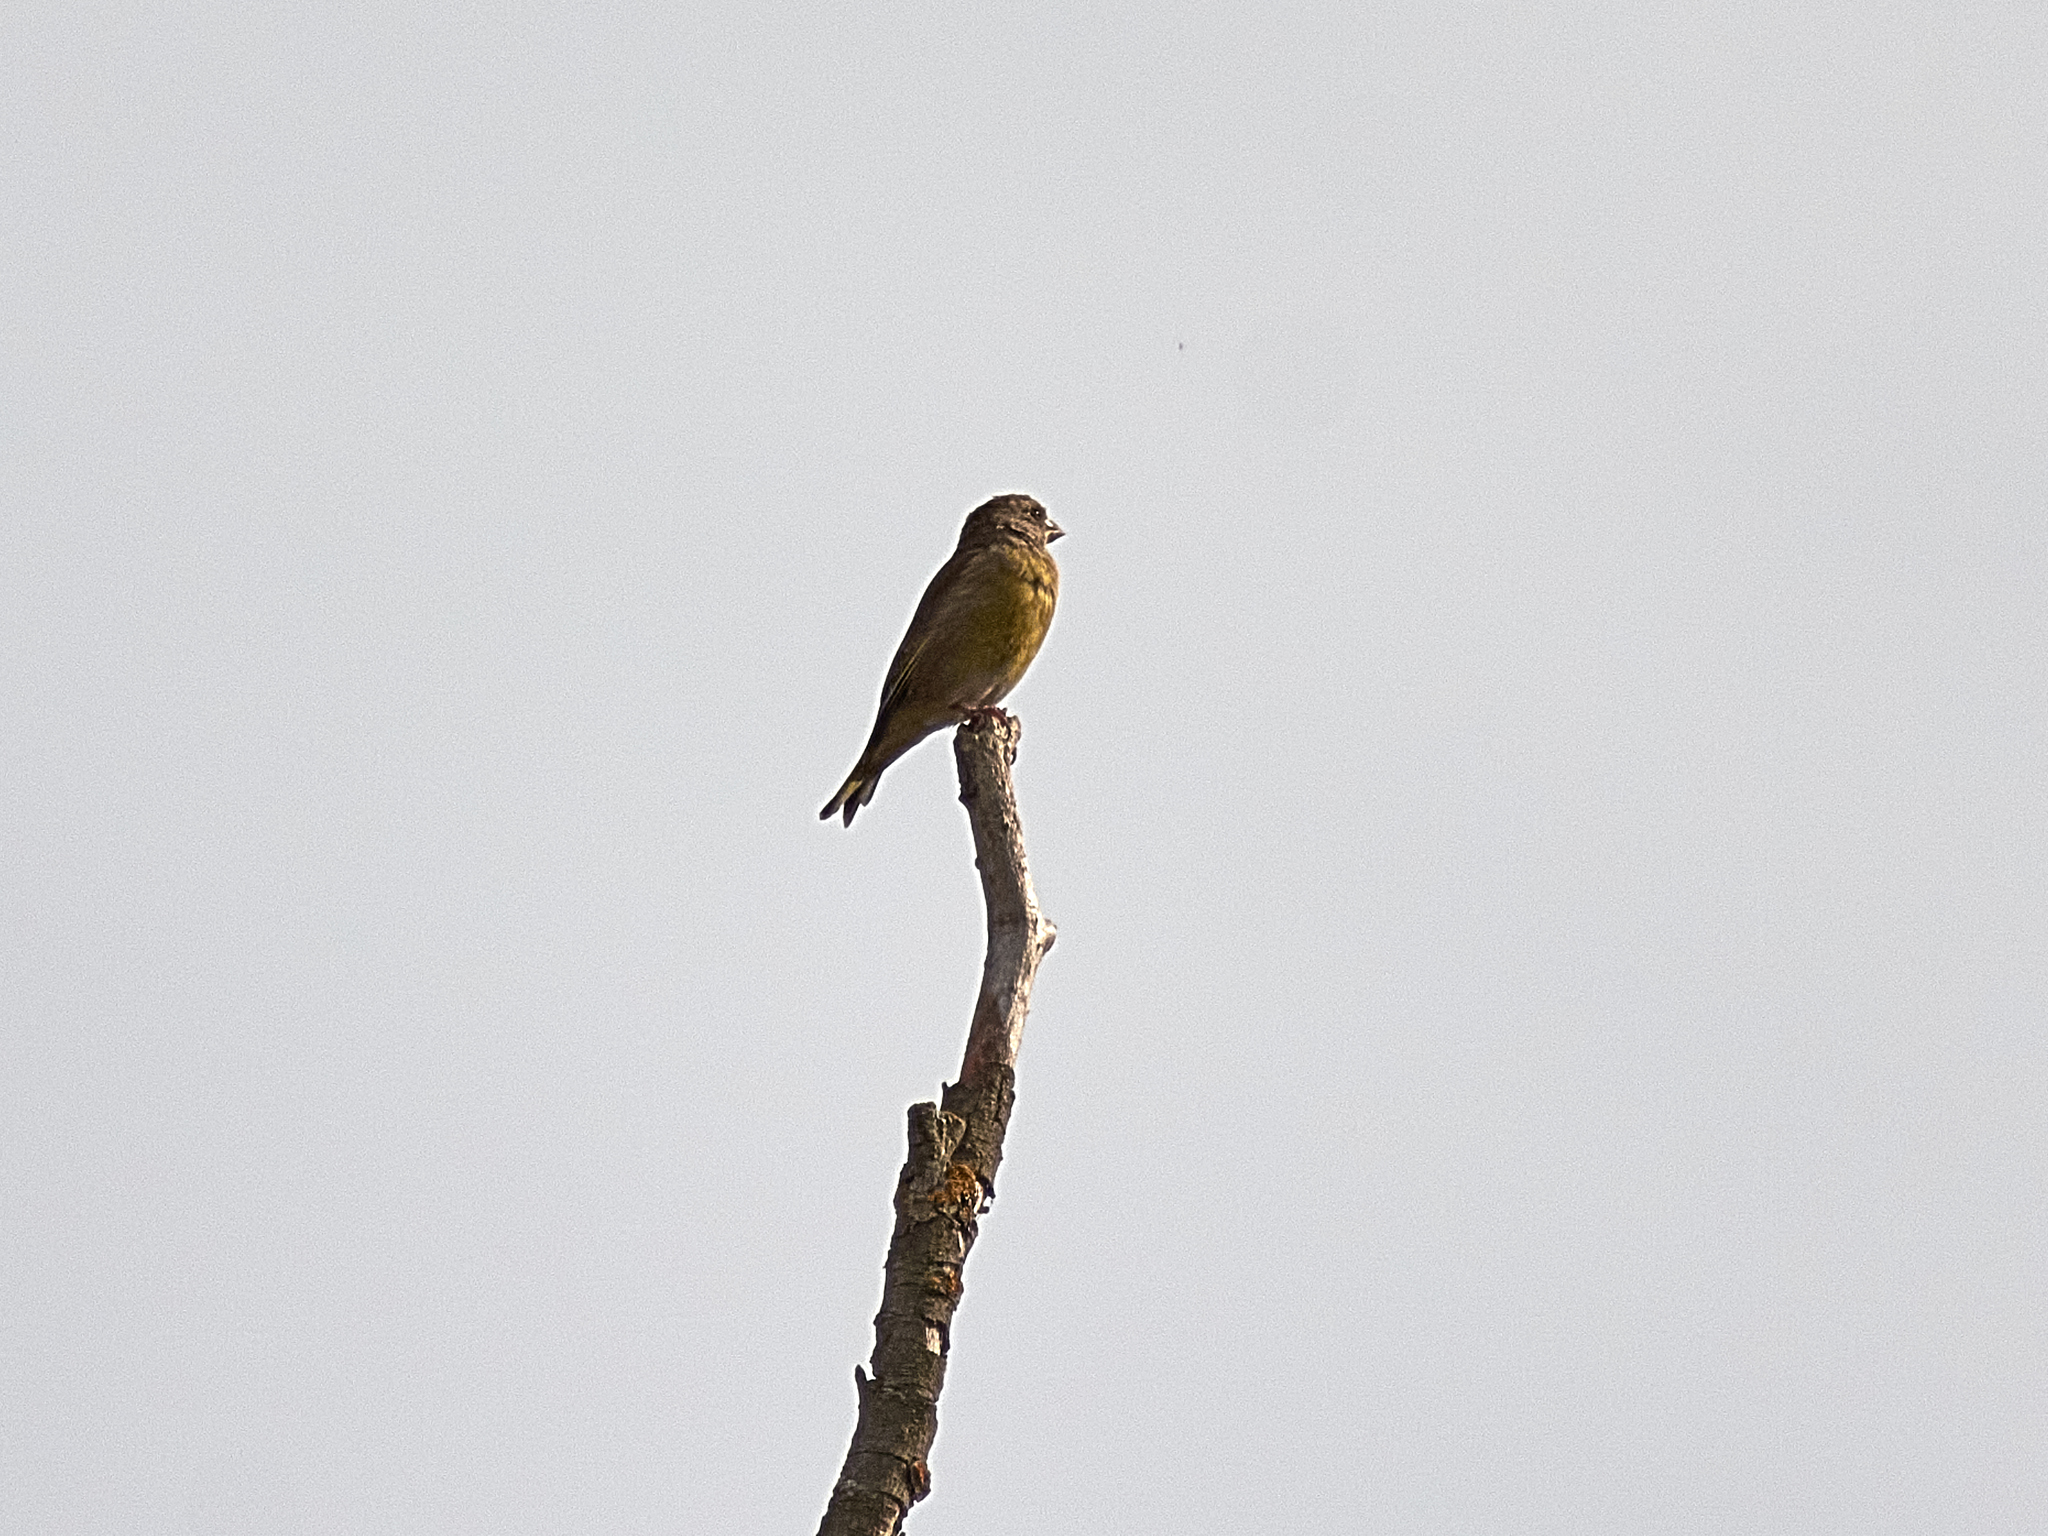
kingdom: Plantae
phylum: Tracheophyta
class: Liliopsida
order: Poales
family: Poaceae
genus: Chloris
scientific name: Chloris chloris
